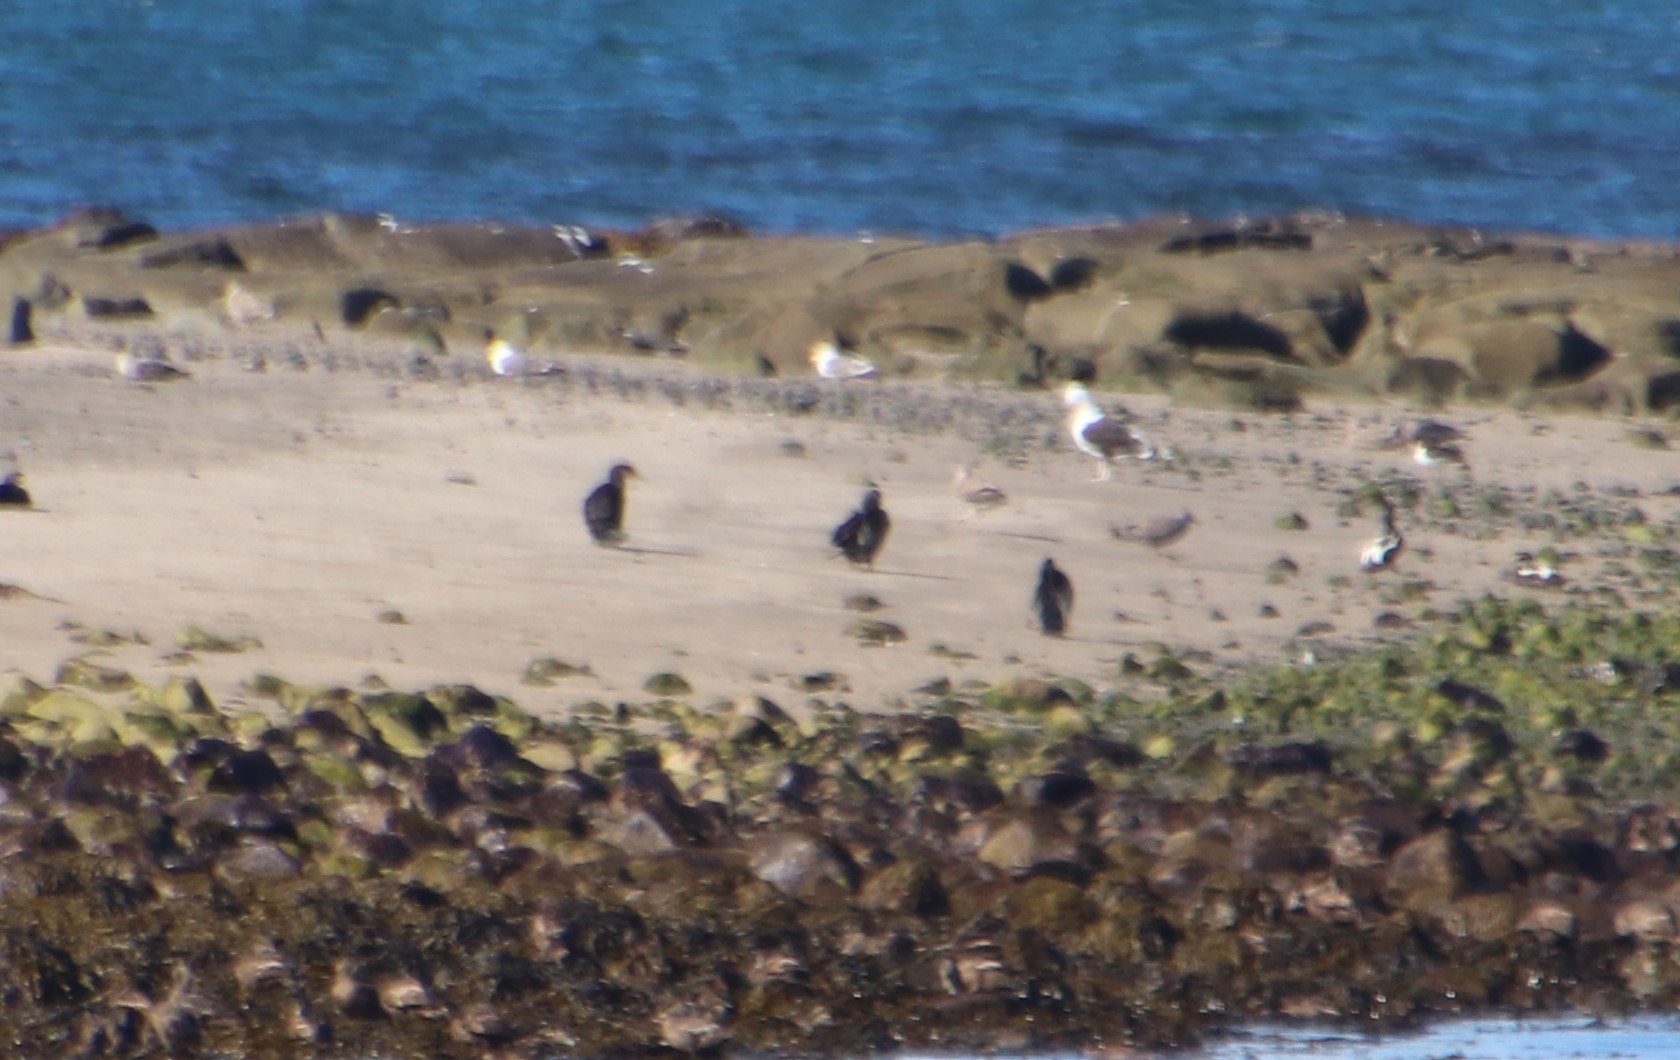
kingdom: Animalia
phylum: Chordata
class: Aves
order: Suliformes
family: Phalacrocoracidae
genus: Phalacrocorax
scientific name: Phalacrocorax carbo
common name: Great cormorant
